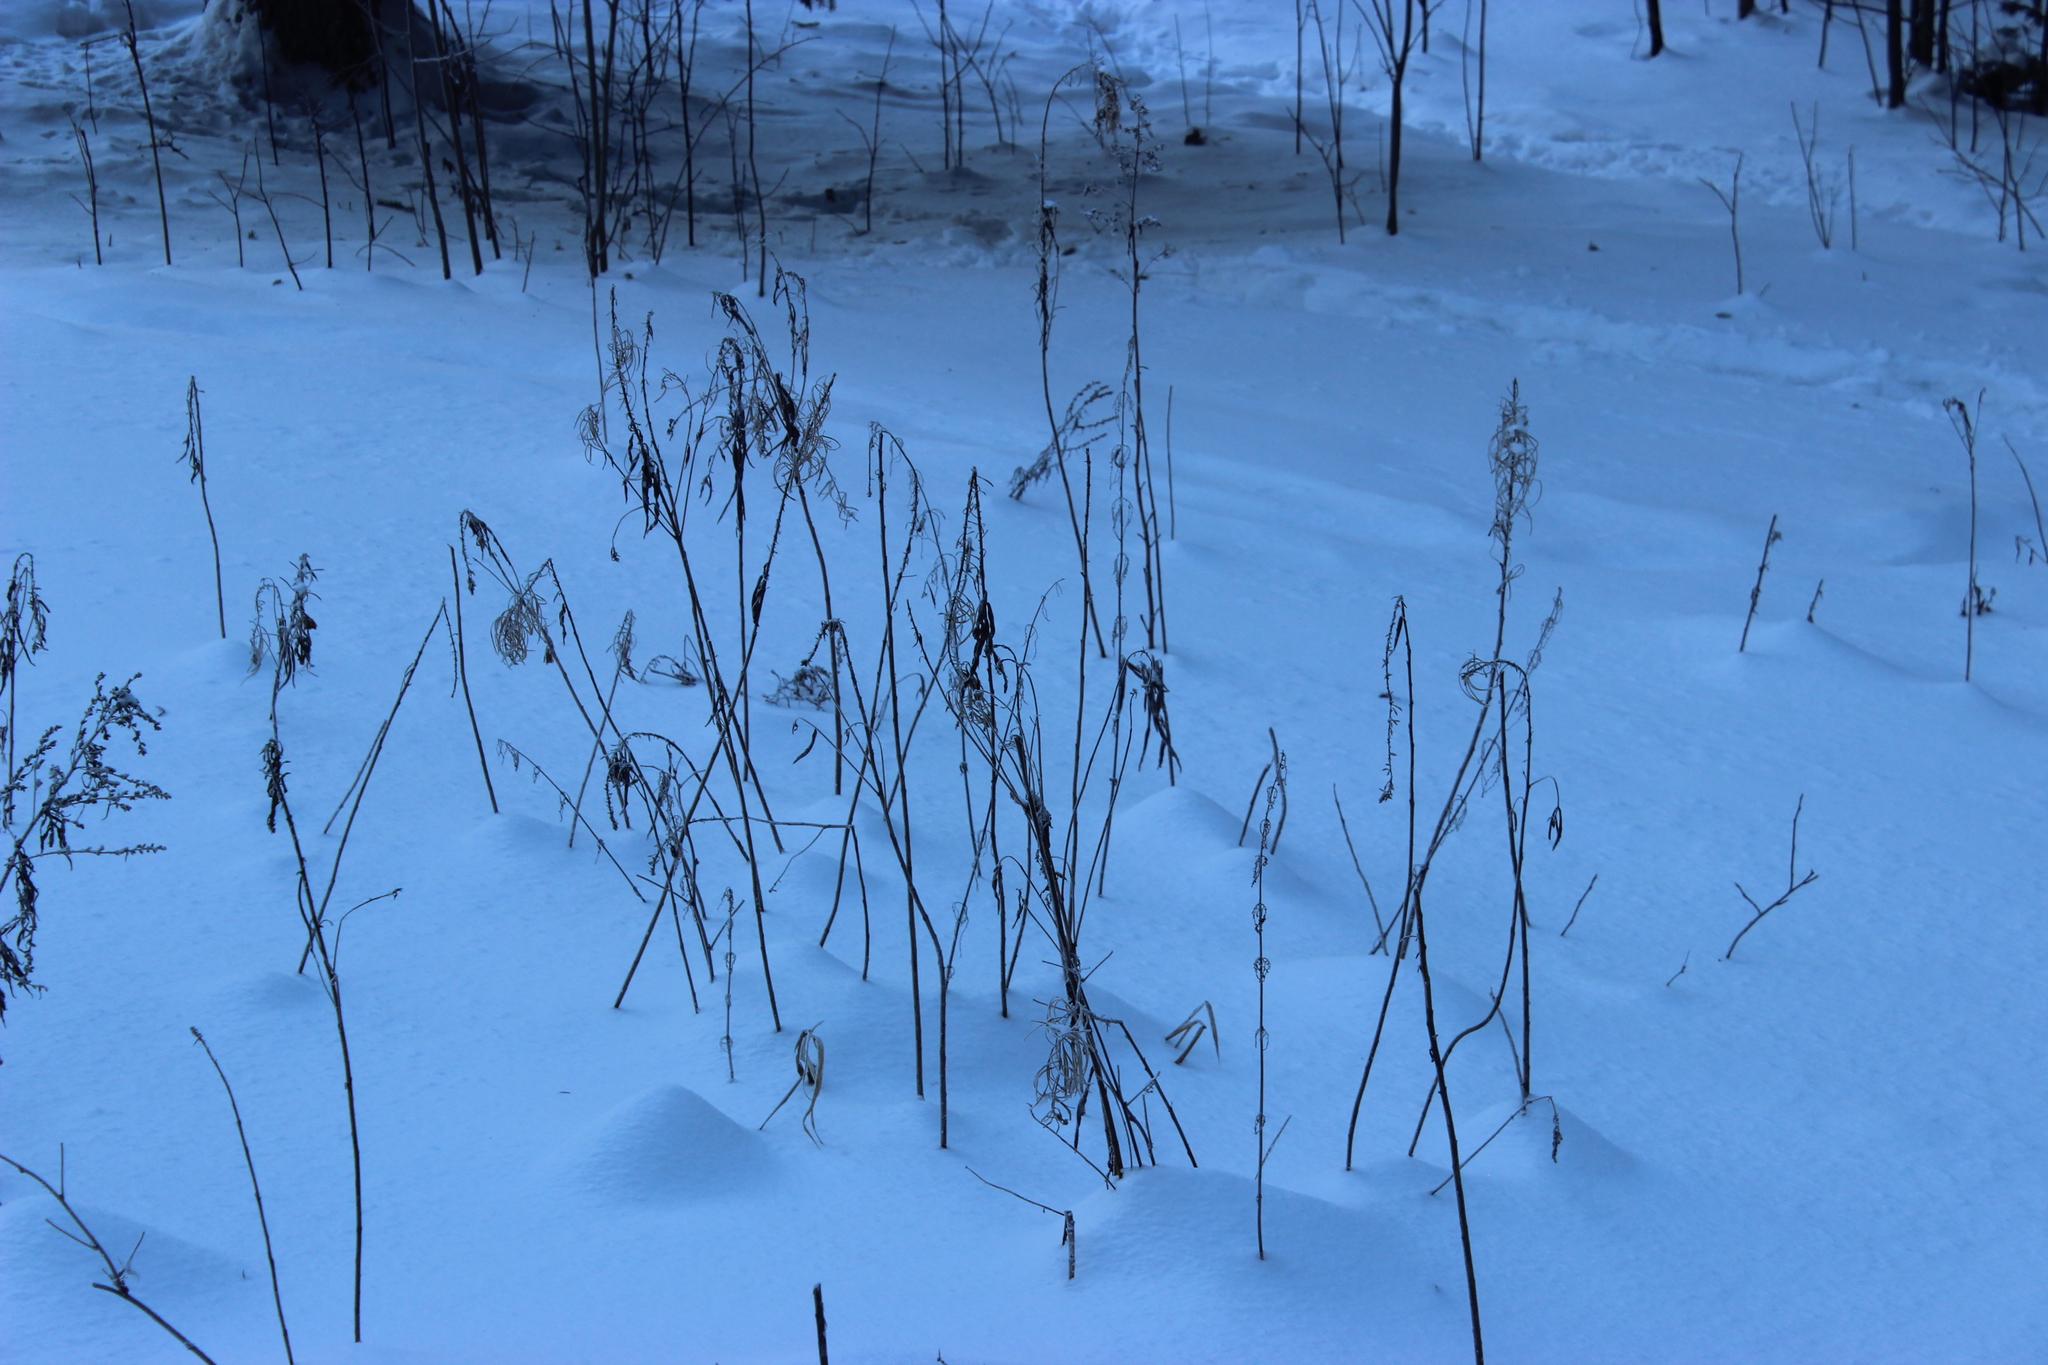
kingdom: Plantae
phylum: Tracheophyta
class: Magnoliopsida
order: Myrtales
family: Onagraceae
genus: Chamaenerion
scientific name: Chamaenerion angustifolium
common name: Fireweed
